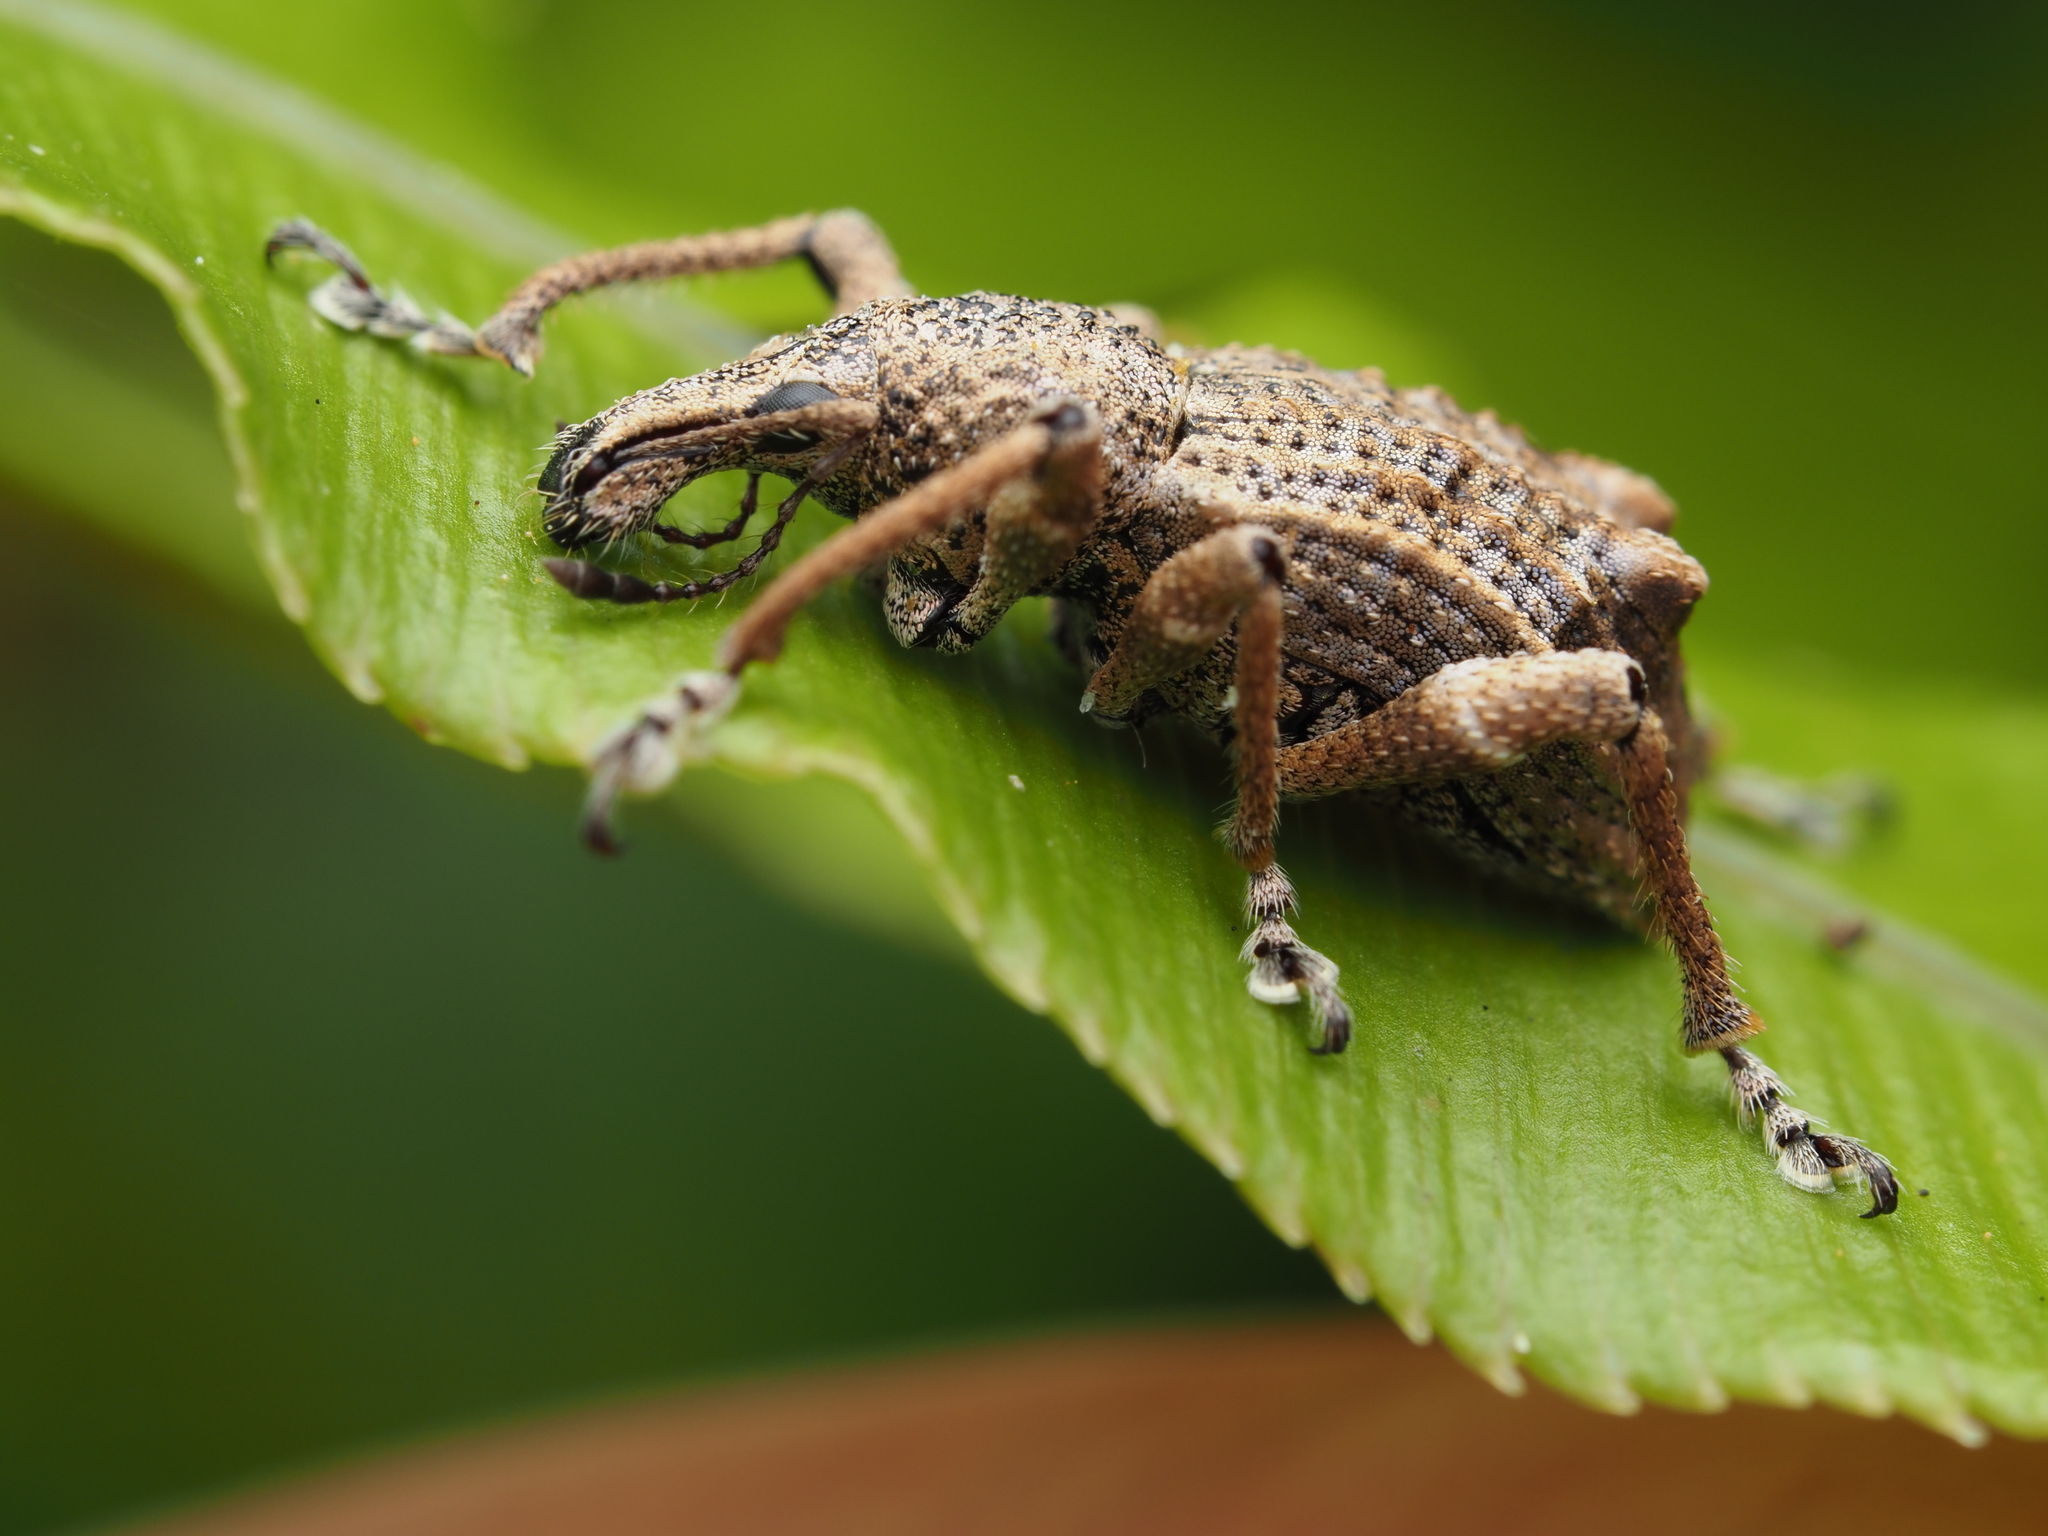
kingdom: Animalia
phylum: Arthropoda
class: Insecta
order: Coleoptera
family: Curculionidae
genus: Catoptes
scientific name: Catoptes binodis
